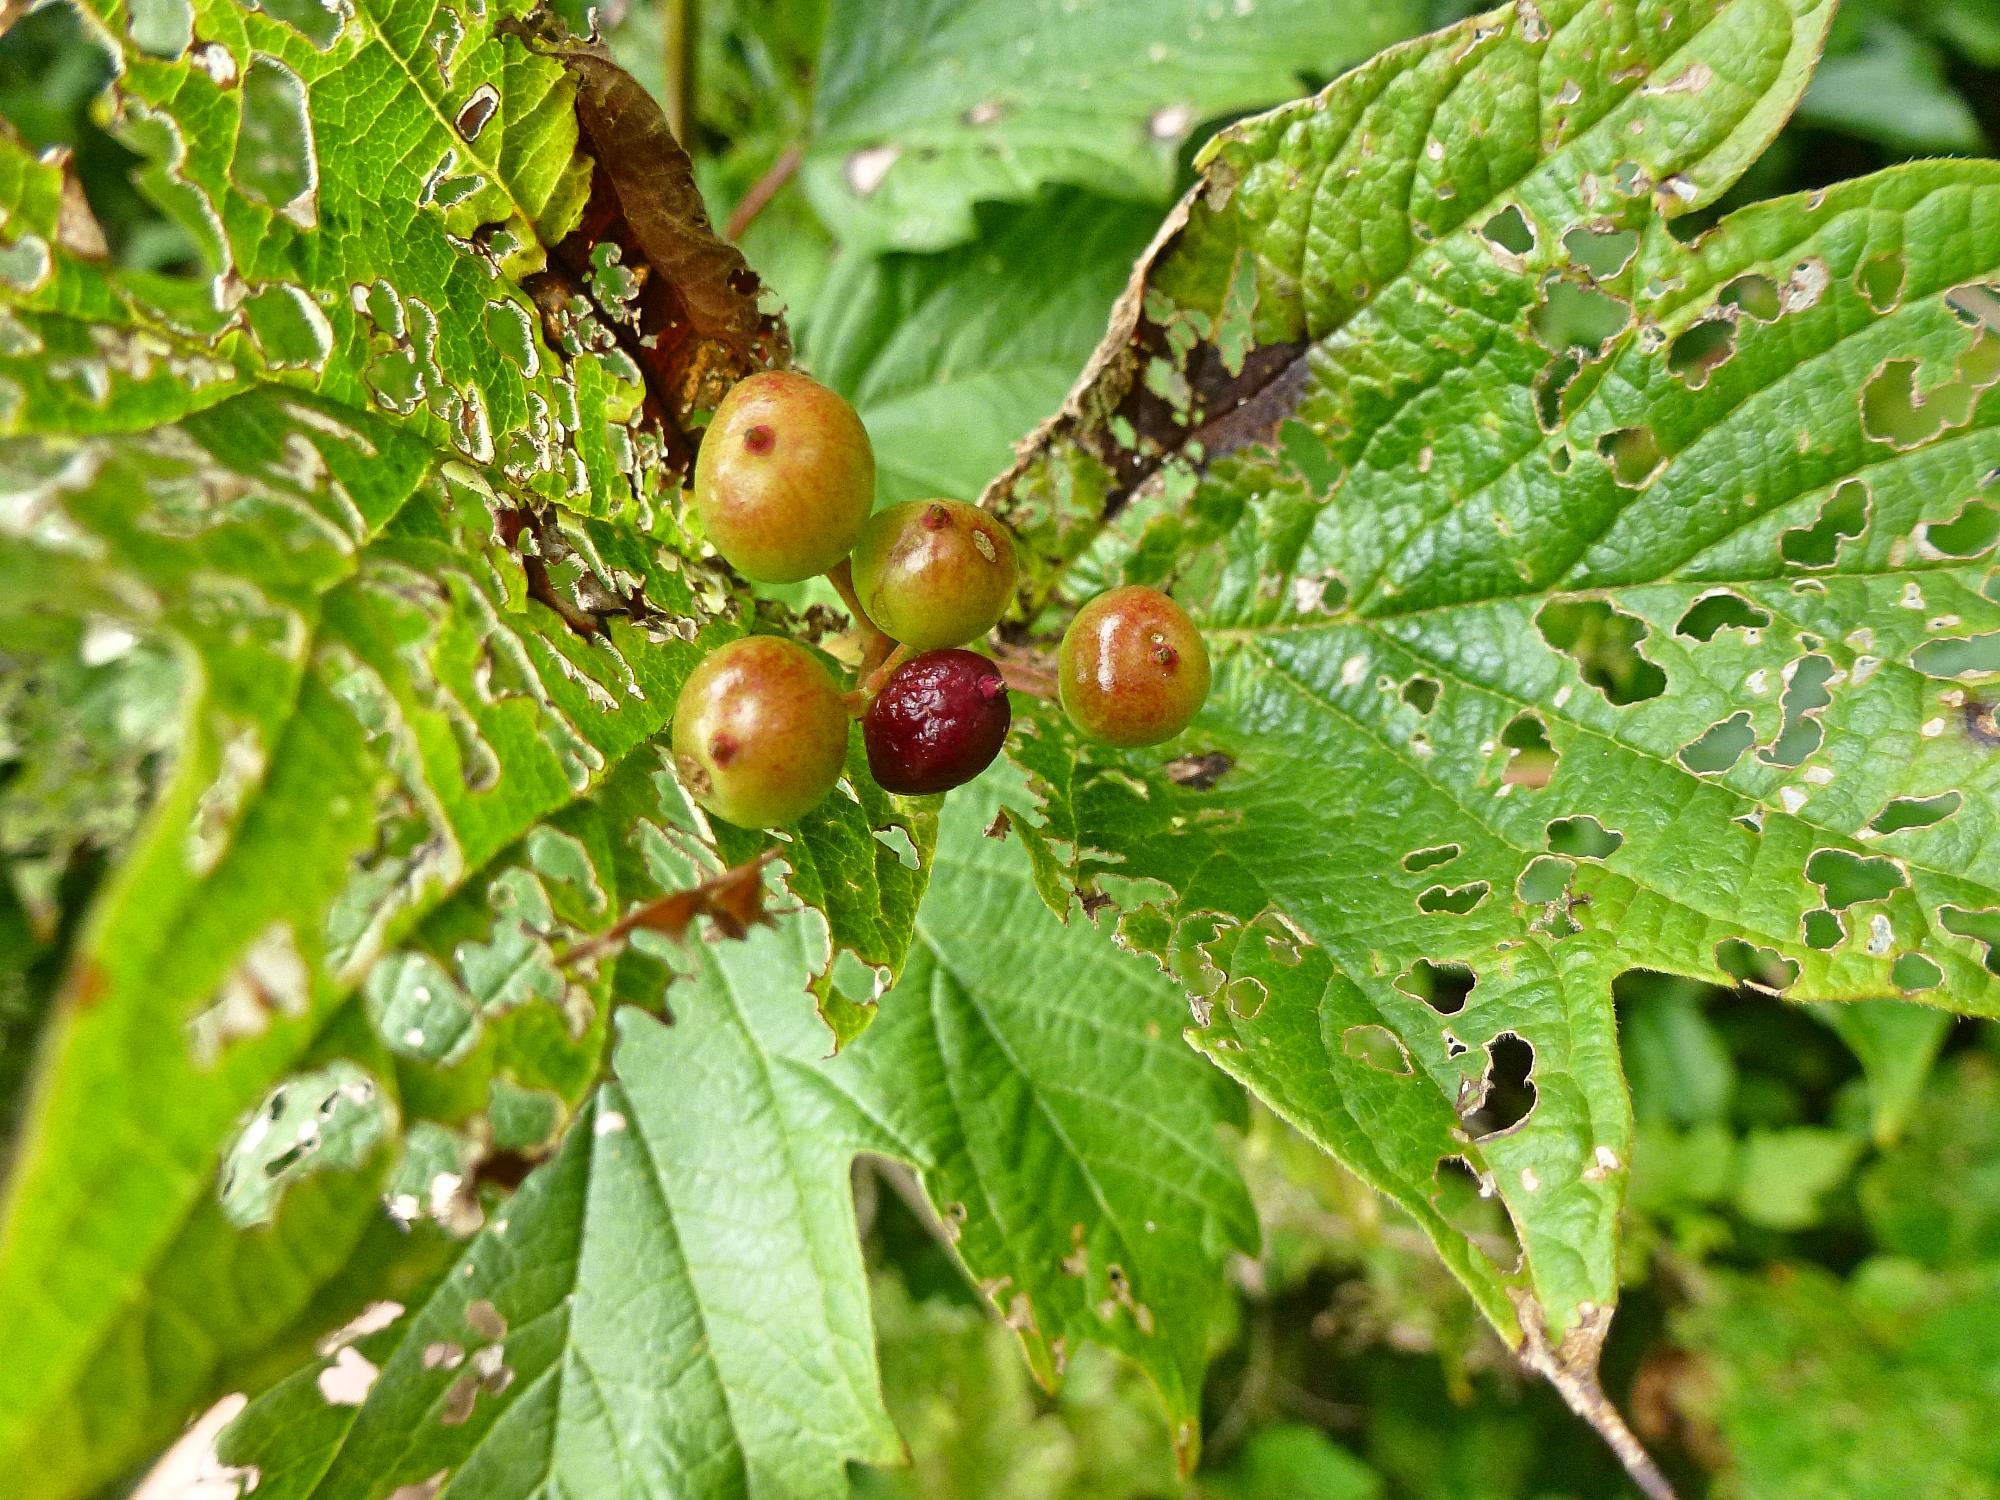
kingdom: Plantae
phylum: Tracheophyta
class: Magnoliopsida
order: Dipsacales
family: Viburnaceae
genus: Viburnum
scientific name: Viburnum opulus
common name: Guelder-rose
